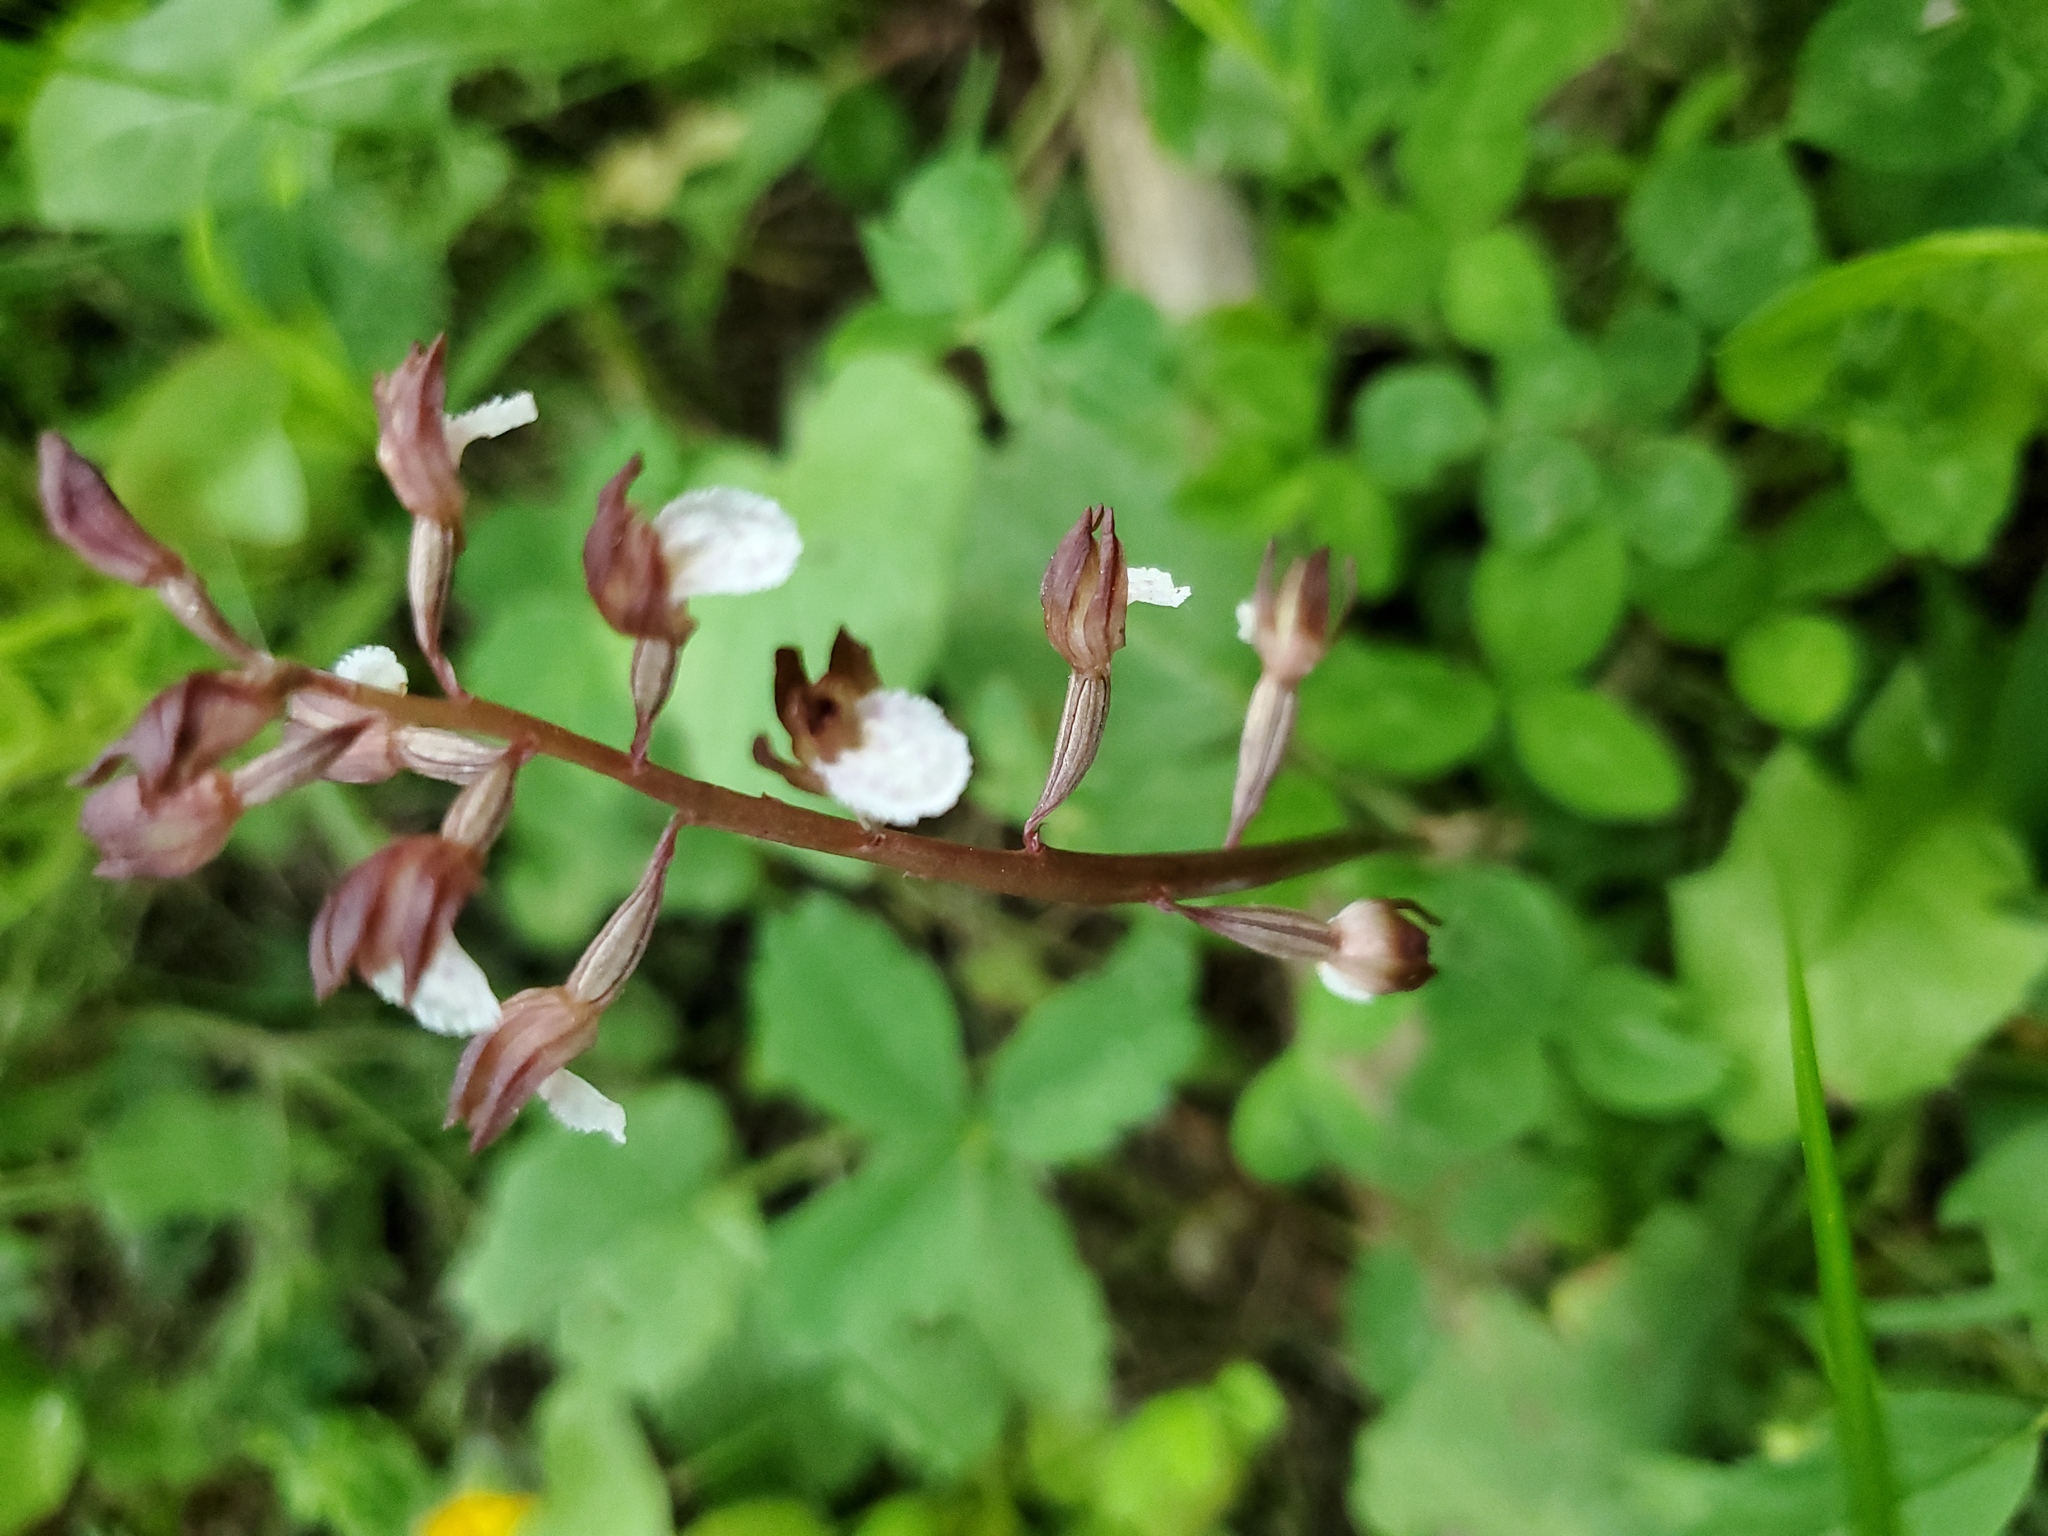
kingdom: Plantae
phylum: Tracheophyta
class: Liliopsida
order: Asparagales
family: Orchidaceae
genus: Corallorhiza
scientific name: Corallorhiza wisteriana
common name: Spring coralroot
